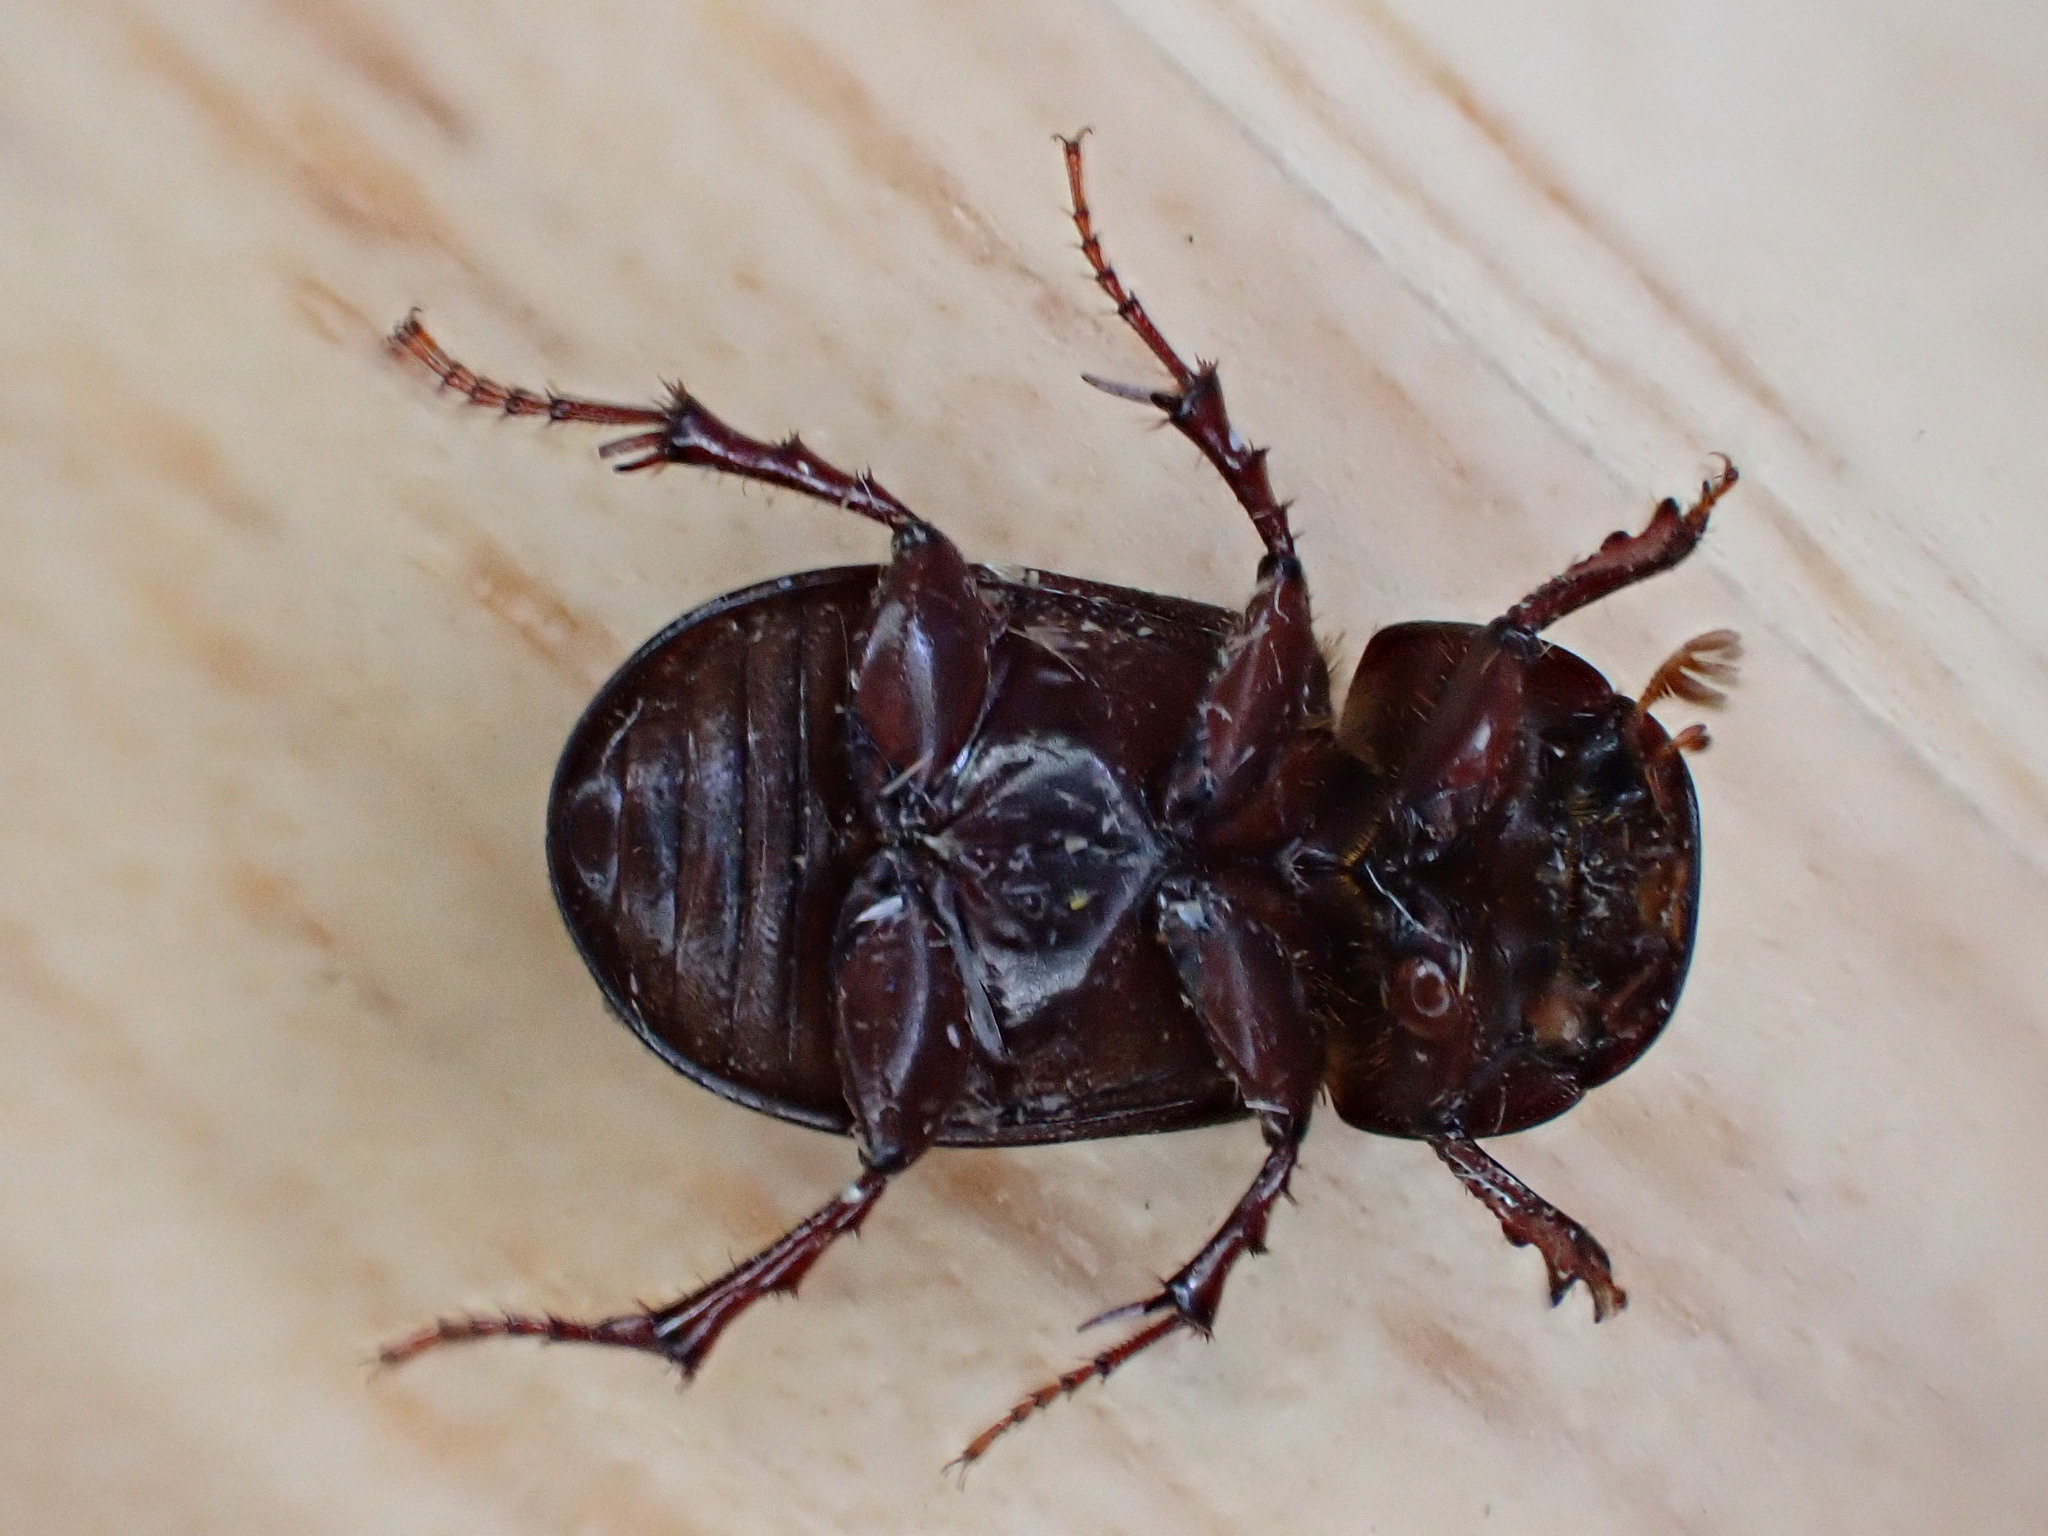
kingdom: Animalia
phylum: Arthropoda
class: Insecta
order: Coleoptera
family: Scarabaeidae
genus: Acrossus
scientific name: Acrossus rufipes
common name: Night-flying dung beetle
